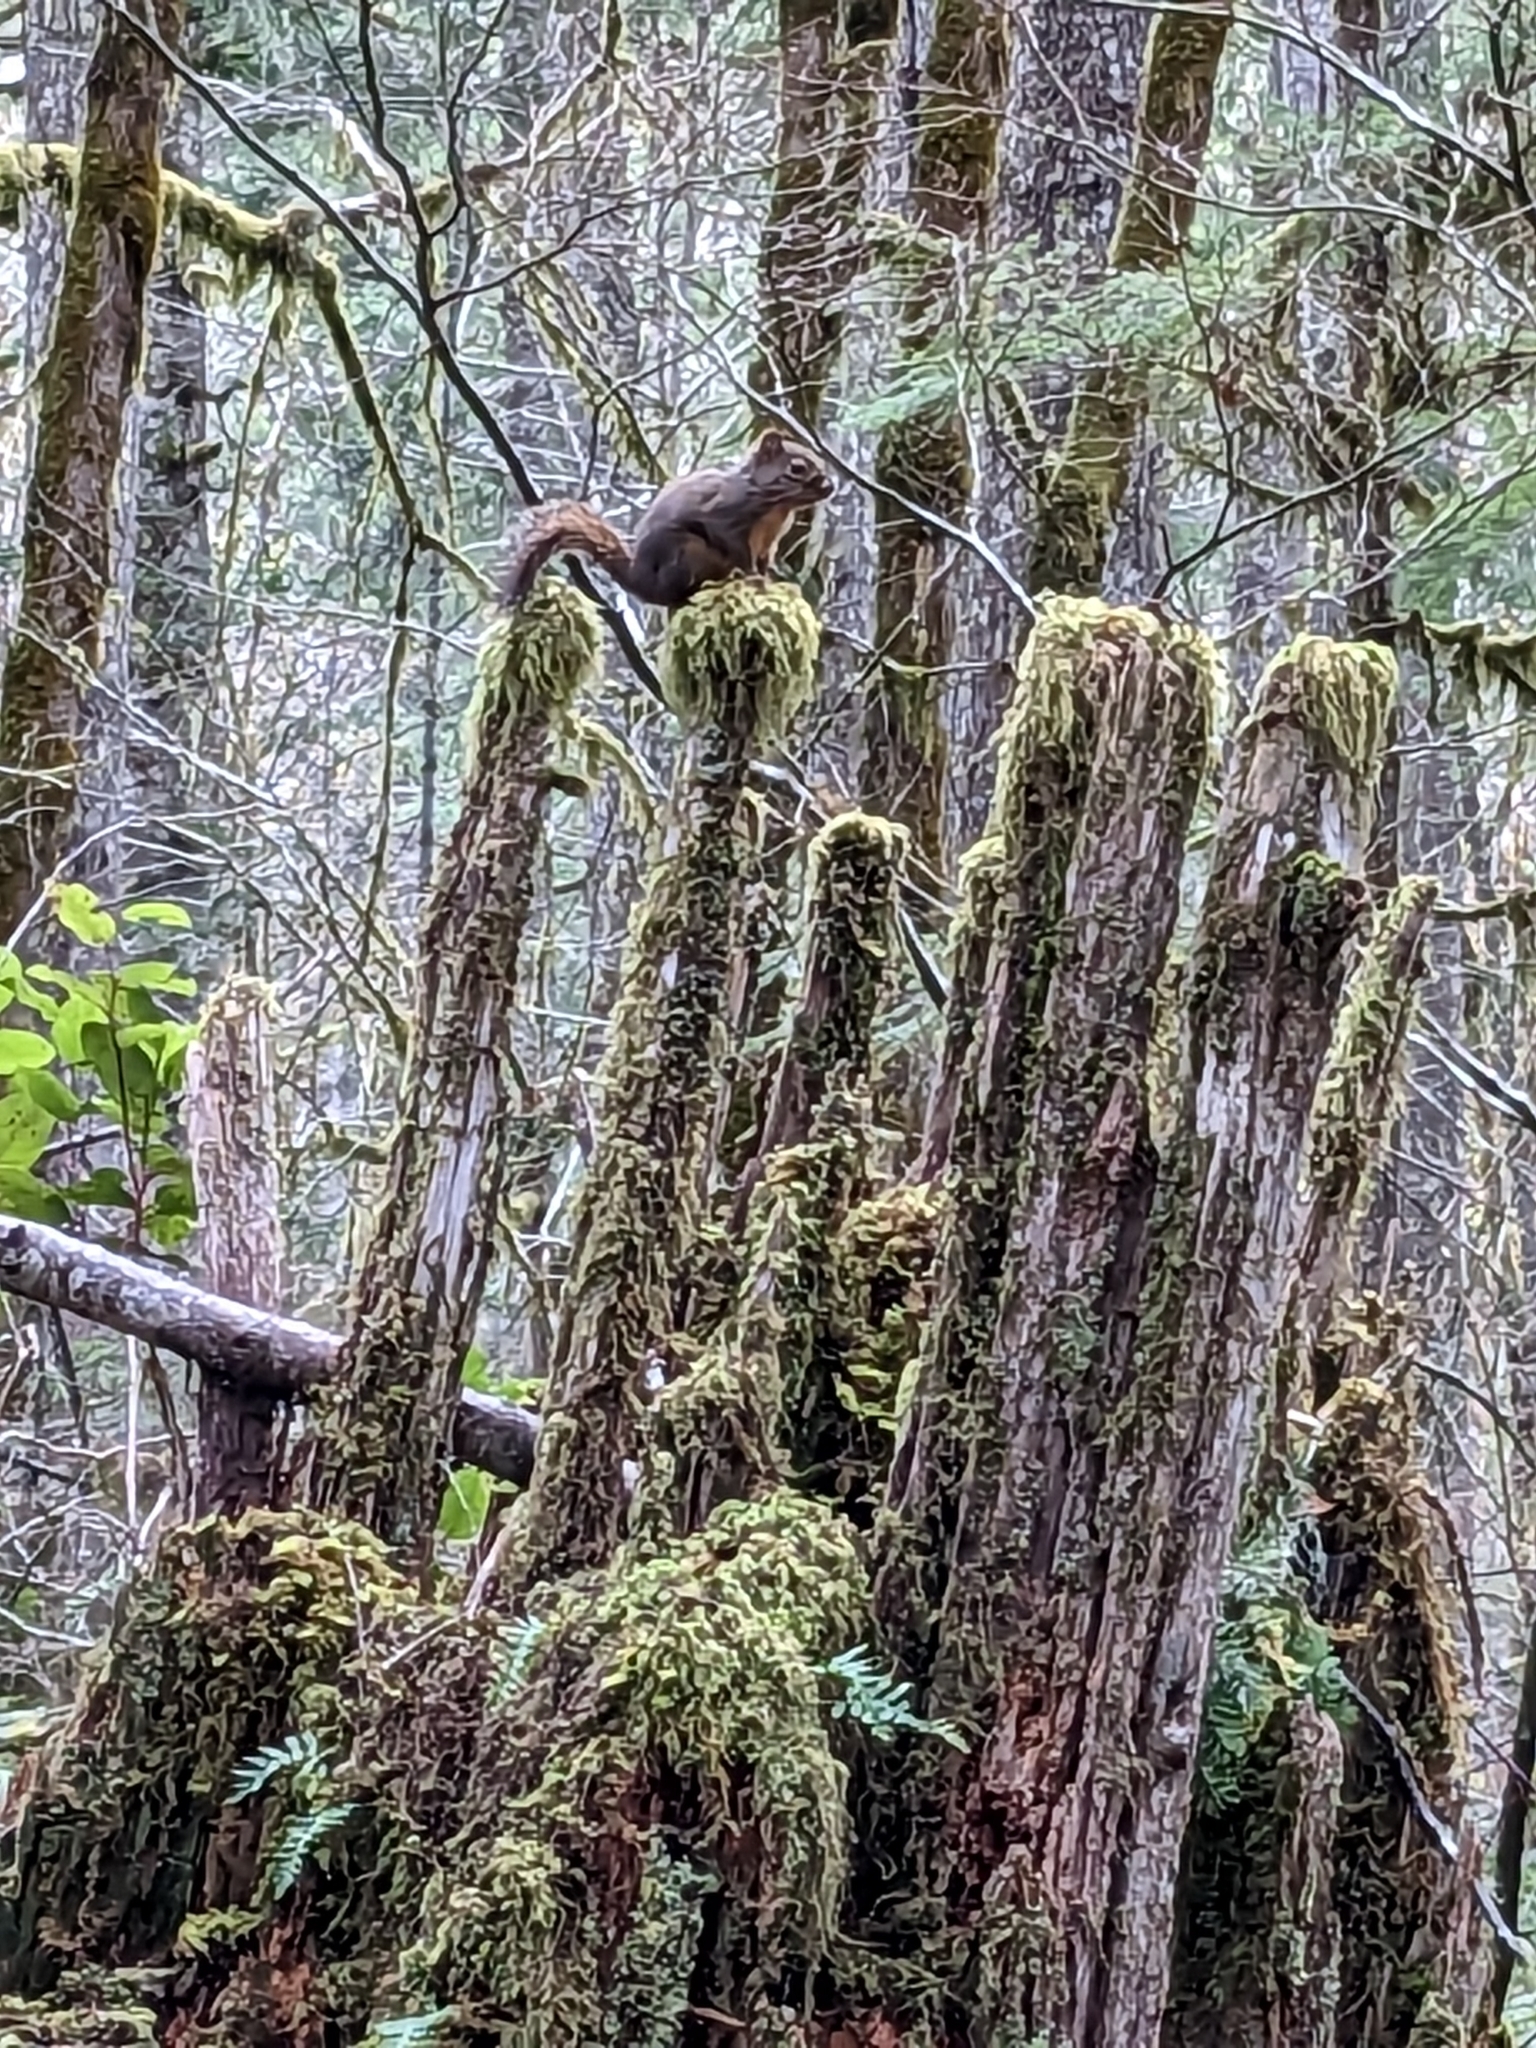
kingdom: Animalia
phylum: Chordata
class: Mammalia
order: Rodentia
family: Sciuridae
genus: Tamiasciurus
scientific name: Tamiasciurus douglasii
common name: Douglas's squirrel
